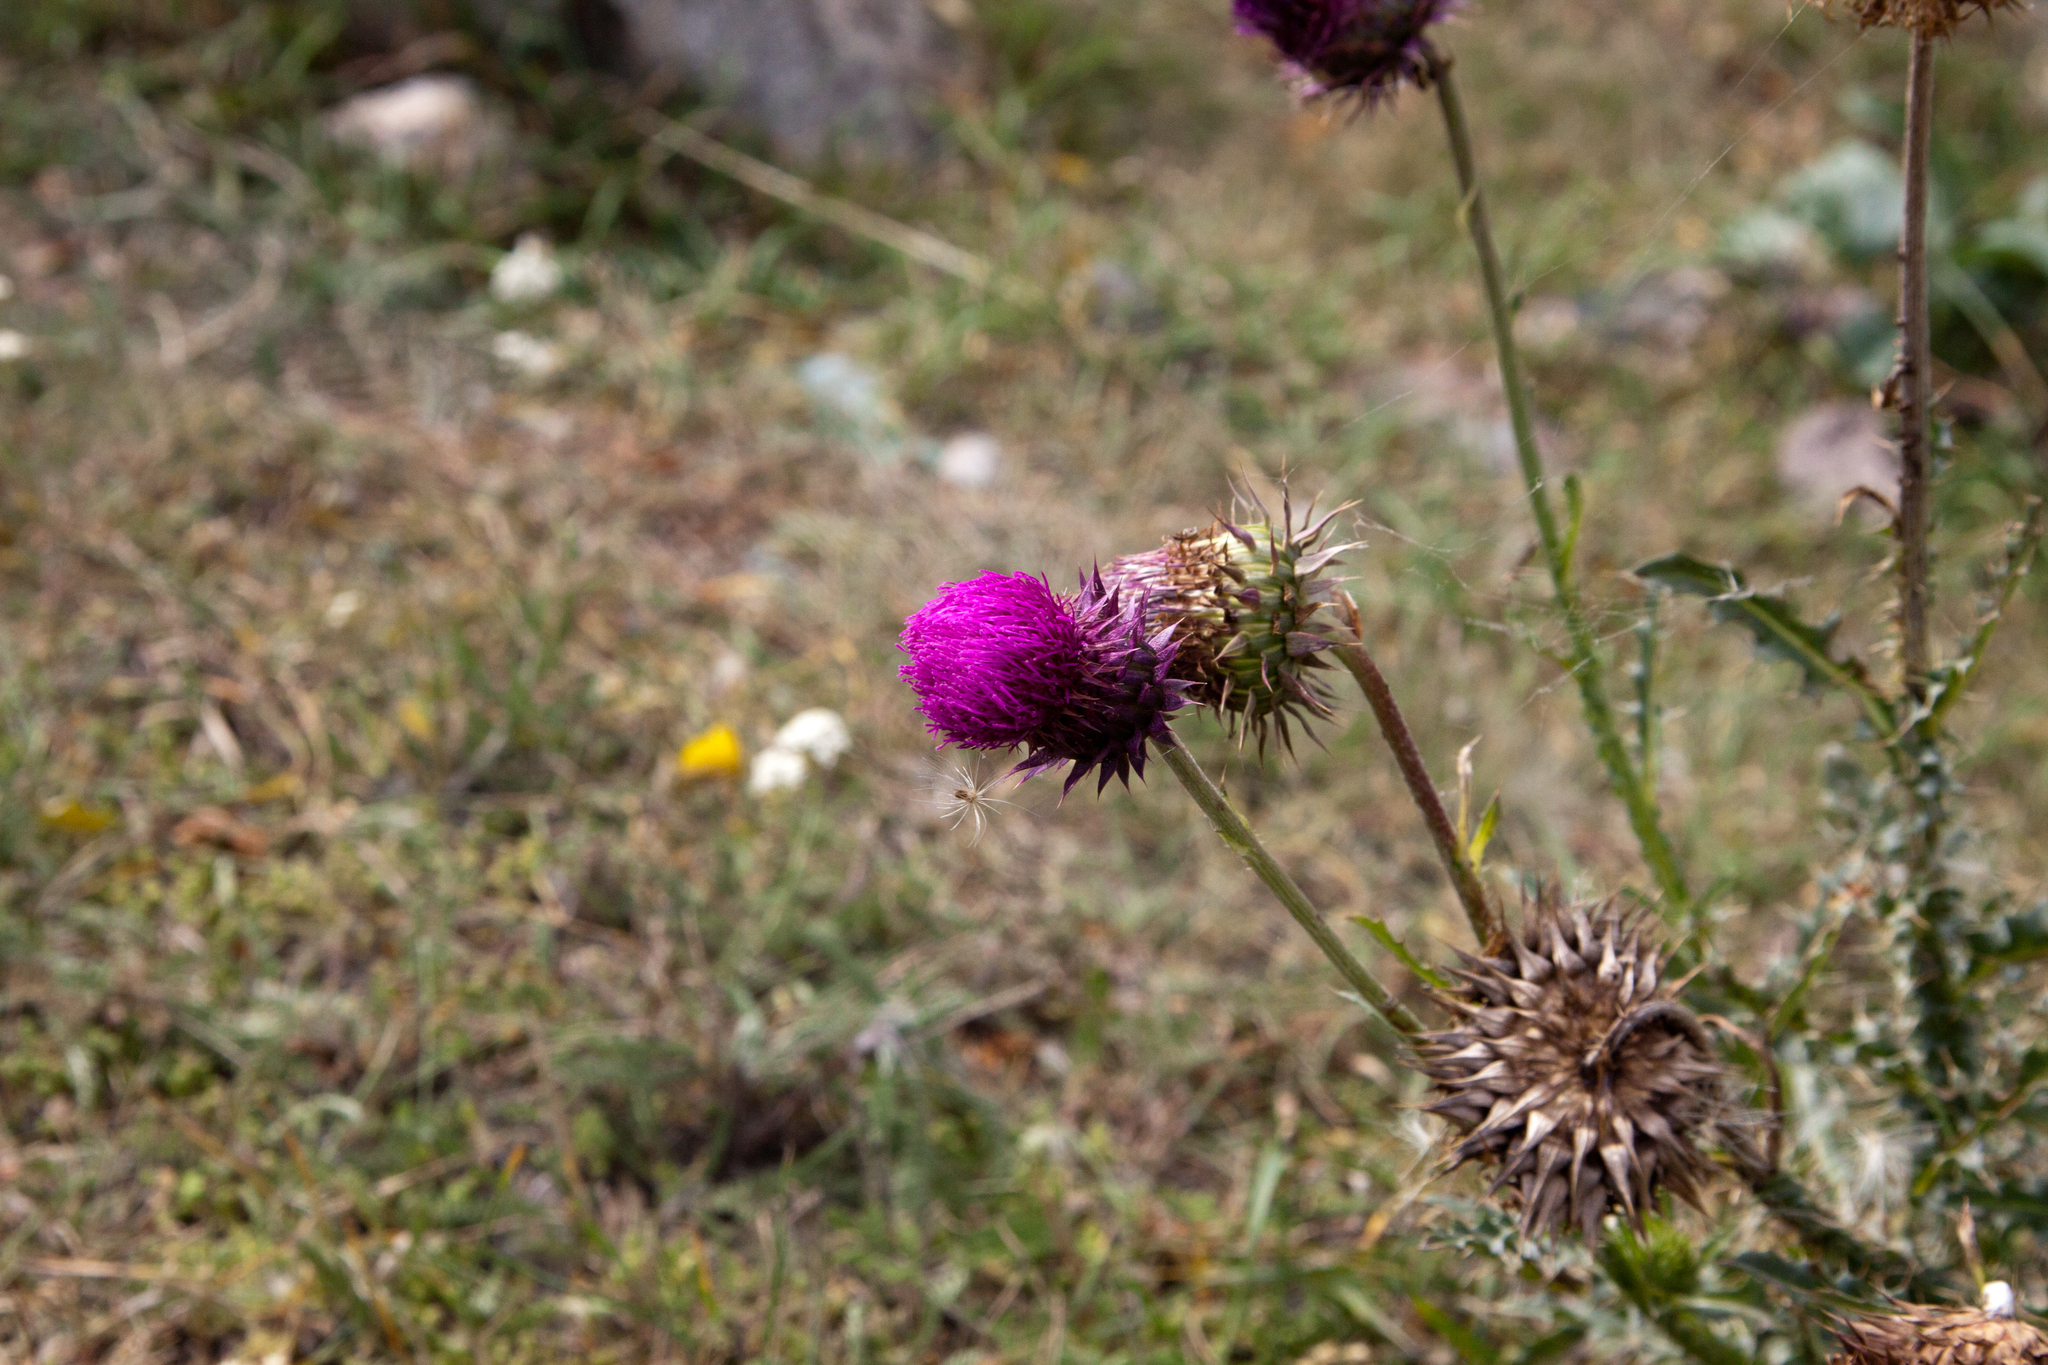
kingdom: Plantae
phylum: Tracheophyta
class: Magnoliopsida
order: Asterales
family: Asteraceae
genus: Carduus
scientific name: Carduus nutans
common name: Musk thistle
